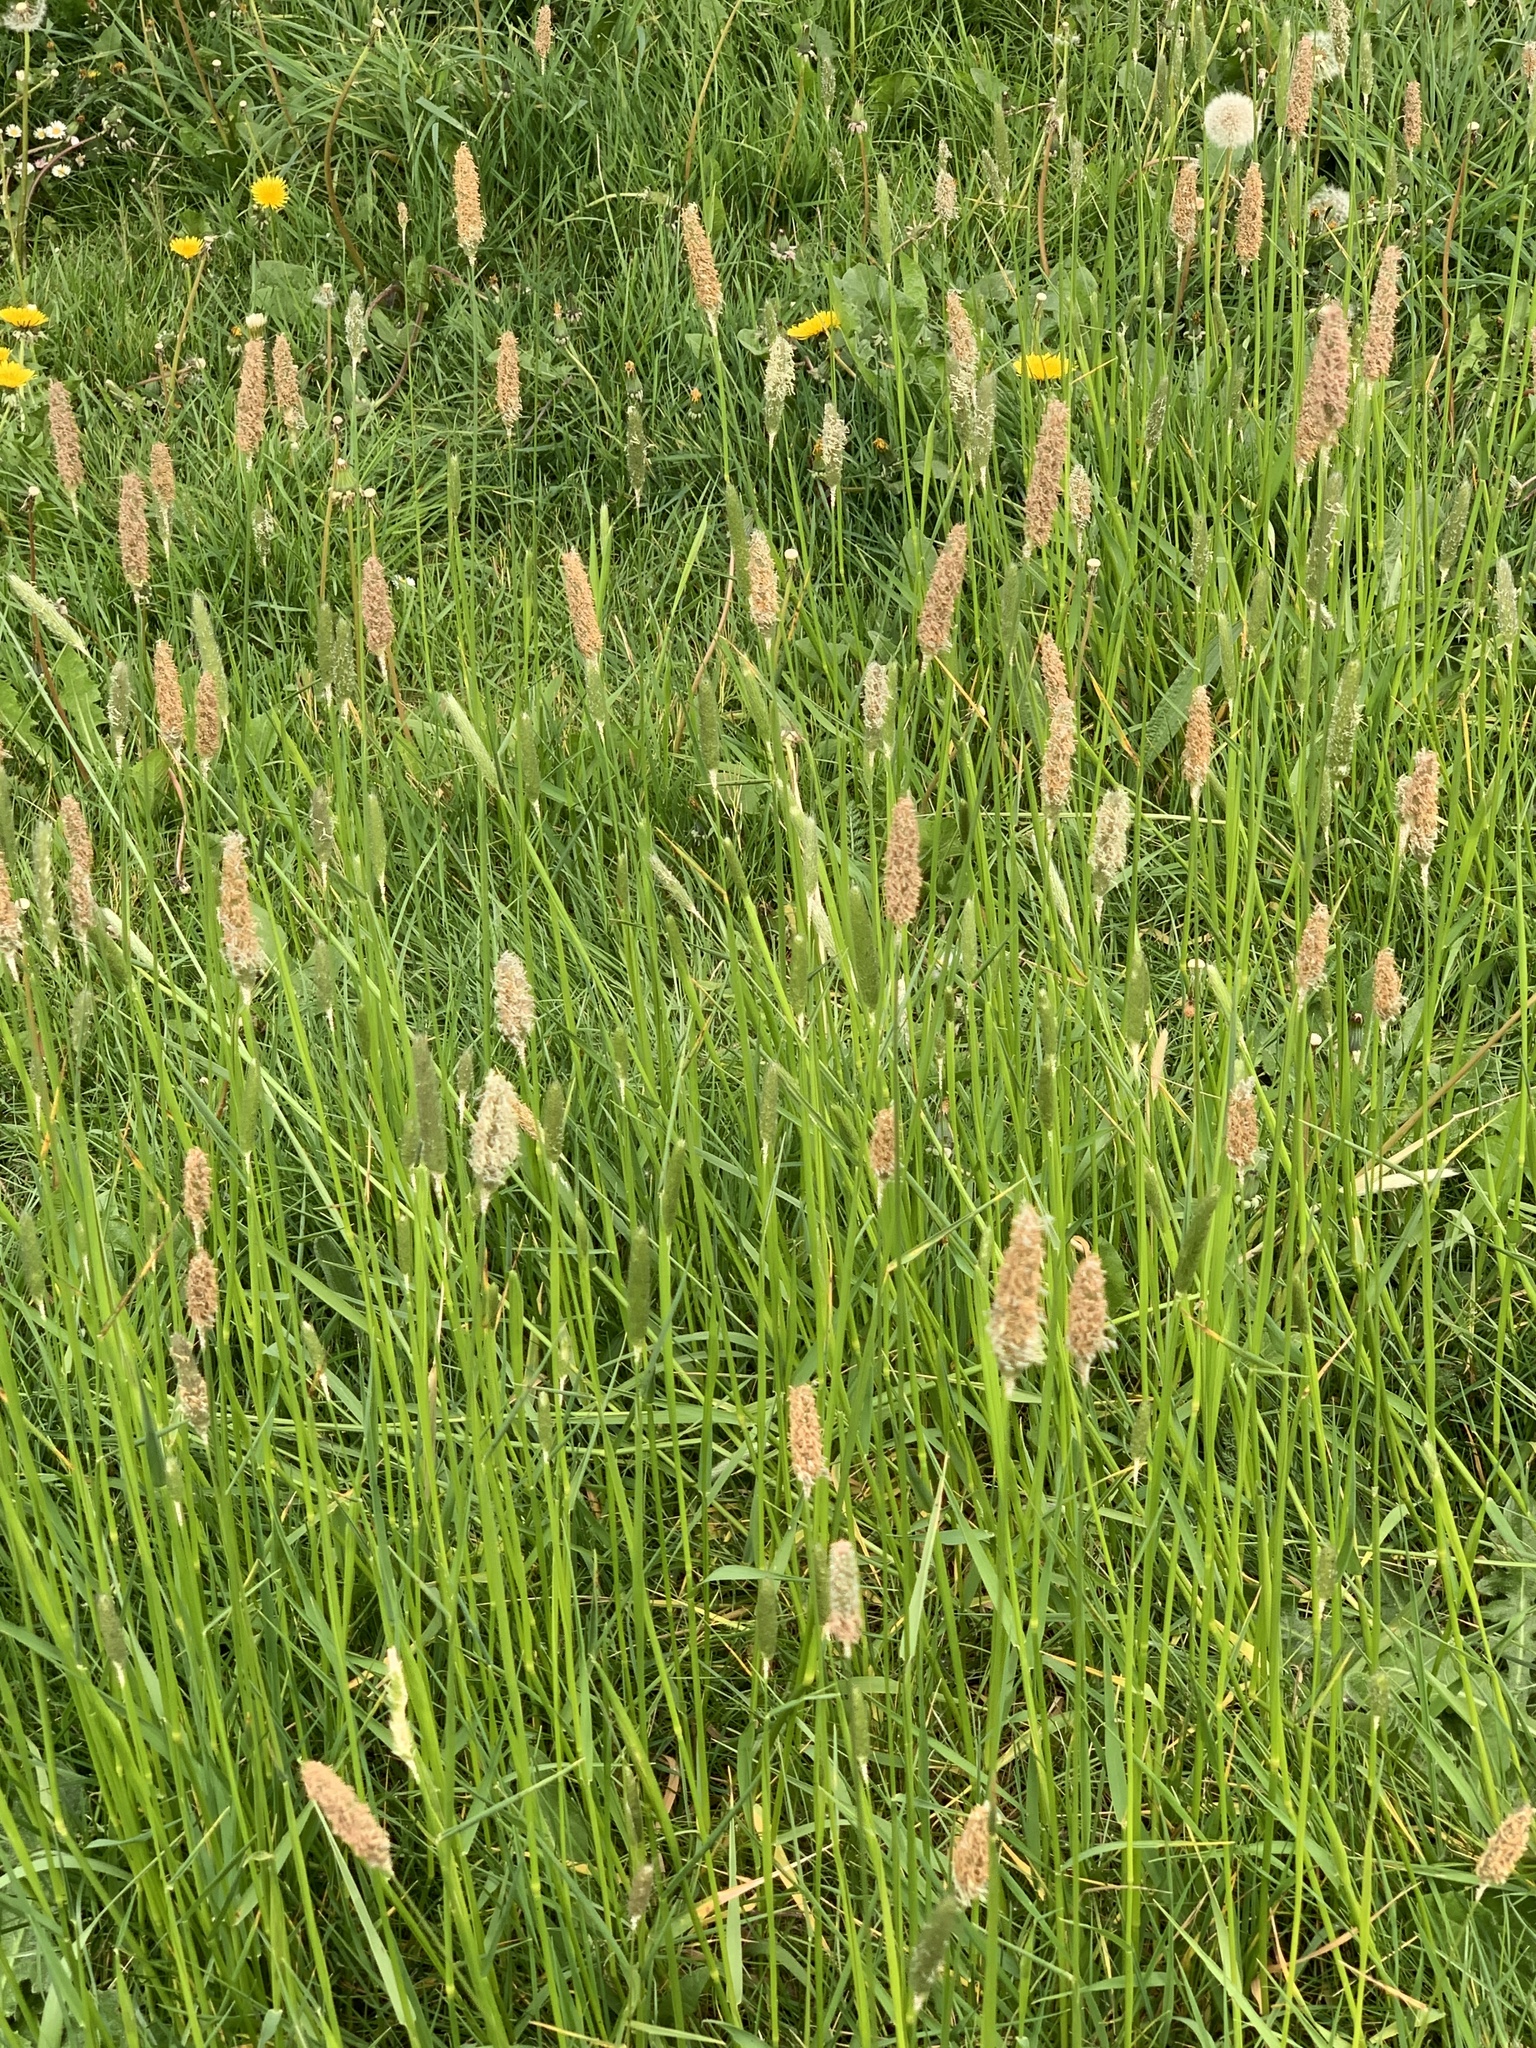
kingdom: Plantae
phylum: Tracheophyta
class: Liliopsida
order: Poales
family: Poaceae
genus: Alopecurus
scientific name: Alopecurus pratensis
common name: Meadow foxtail
